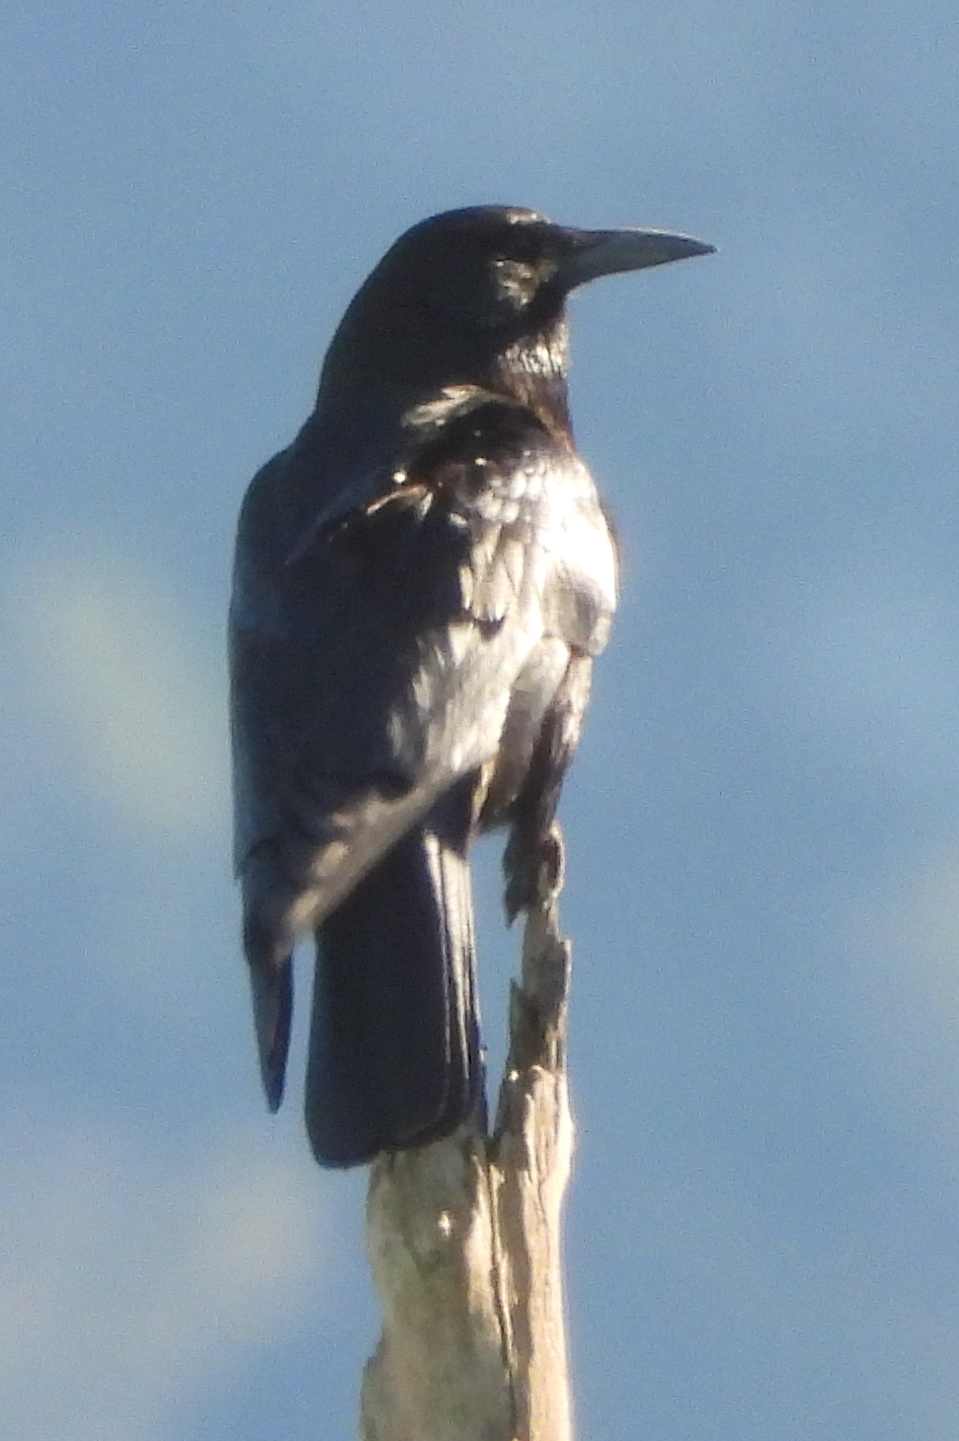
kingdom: Animalia
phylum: Chordata
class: Aves
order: Passeriformes
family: Corvidae
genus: Corvus
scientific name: Corvus capensis
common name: Cape crow
